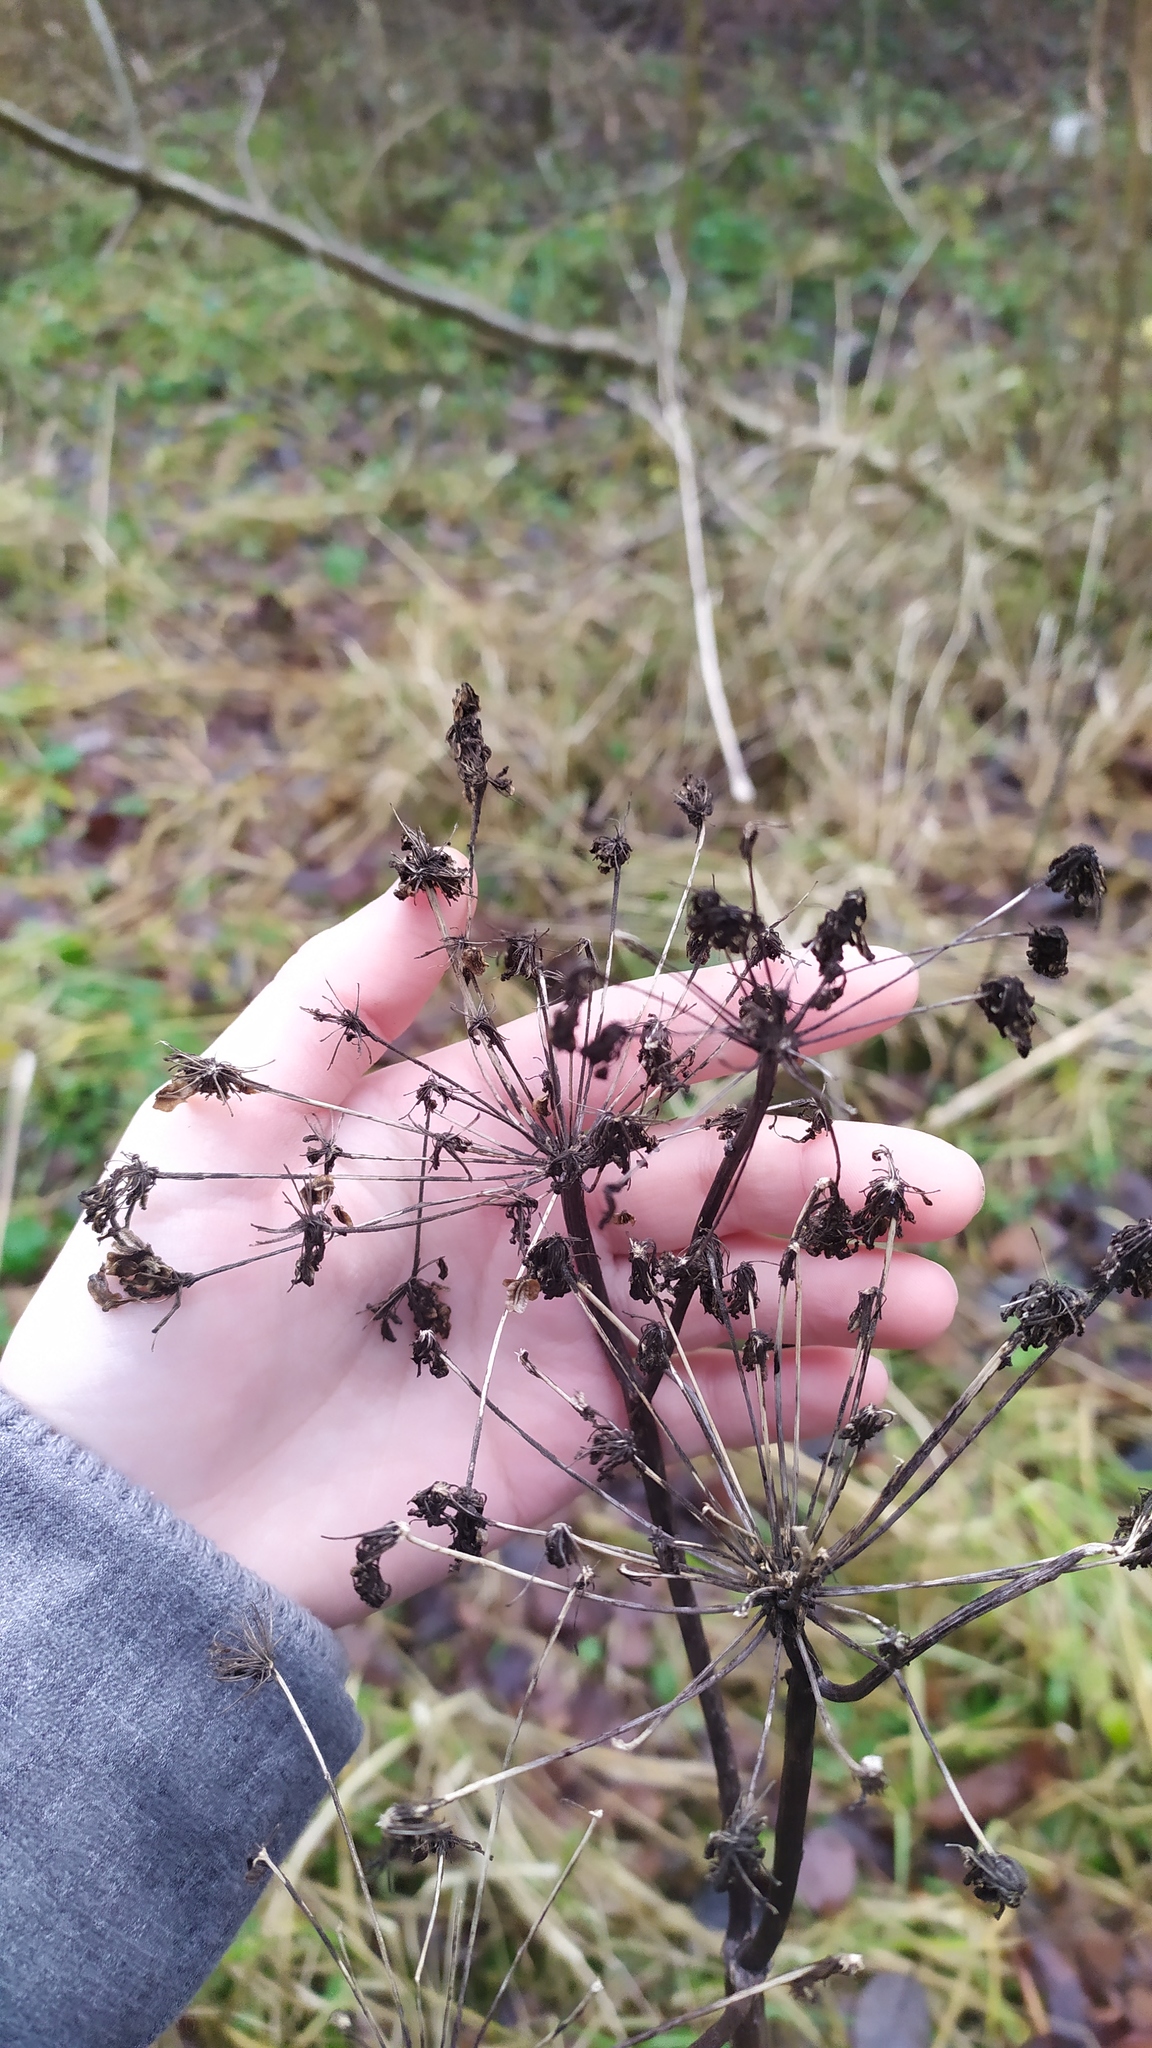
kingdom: Plantae
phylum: Tracheophyta
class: Magnoliopsida
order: Apiales
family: Apiaceae
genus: Angelica
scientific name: Angelica sylvestris
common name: Wild angelica
